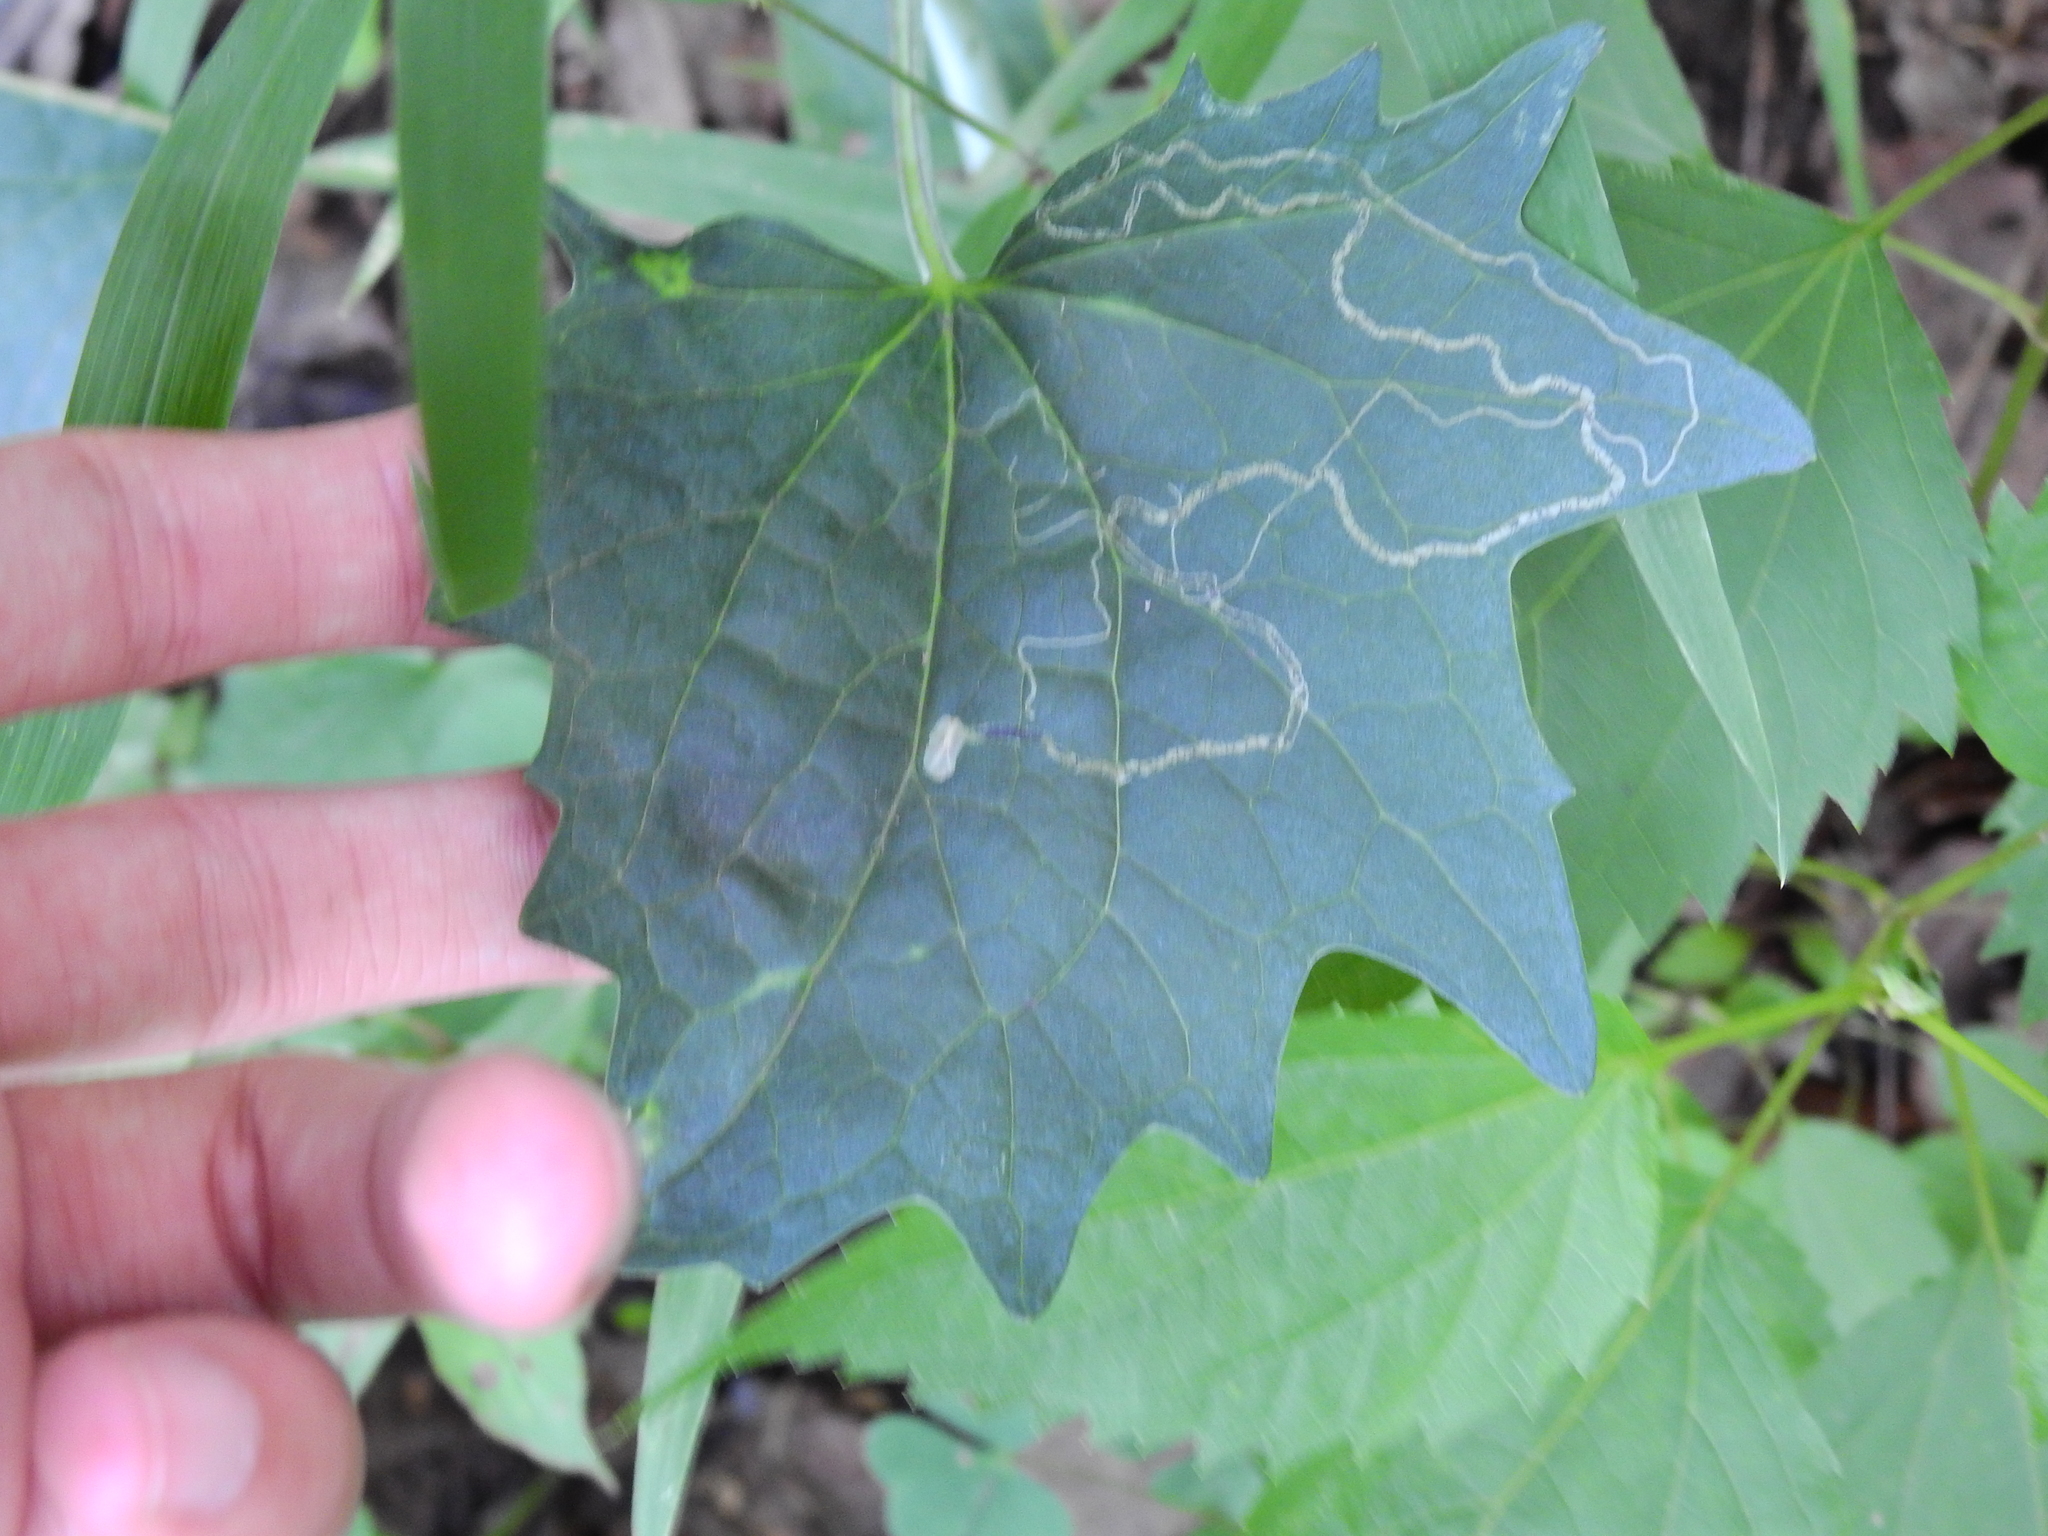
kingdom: Animalia
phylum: Arthropoda
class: Insecta
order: Lepidoptera
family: Gracillariidae
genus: Phyllocnistis
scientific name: Phyllocnistis insignis
